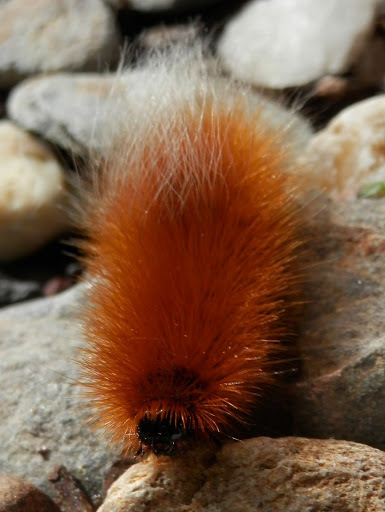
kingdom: Animalia
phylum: Arthropoda
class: Insecta
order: Lepidoptera
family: Erebidae
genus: Arctia
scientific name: Arctia tigrina
